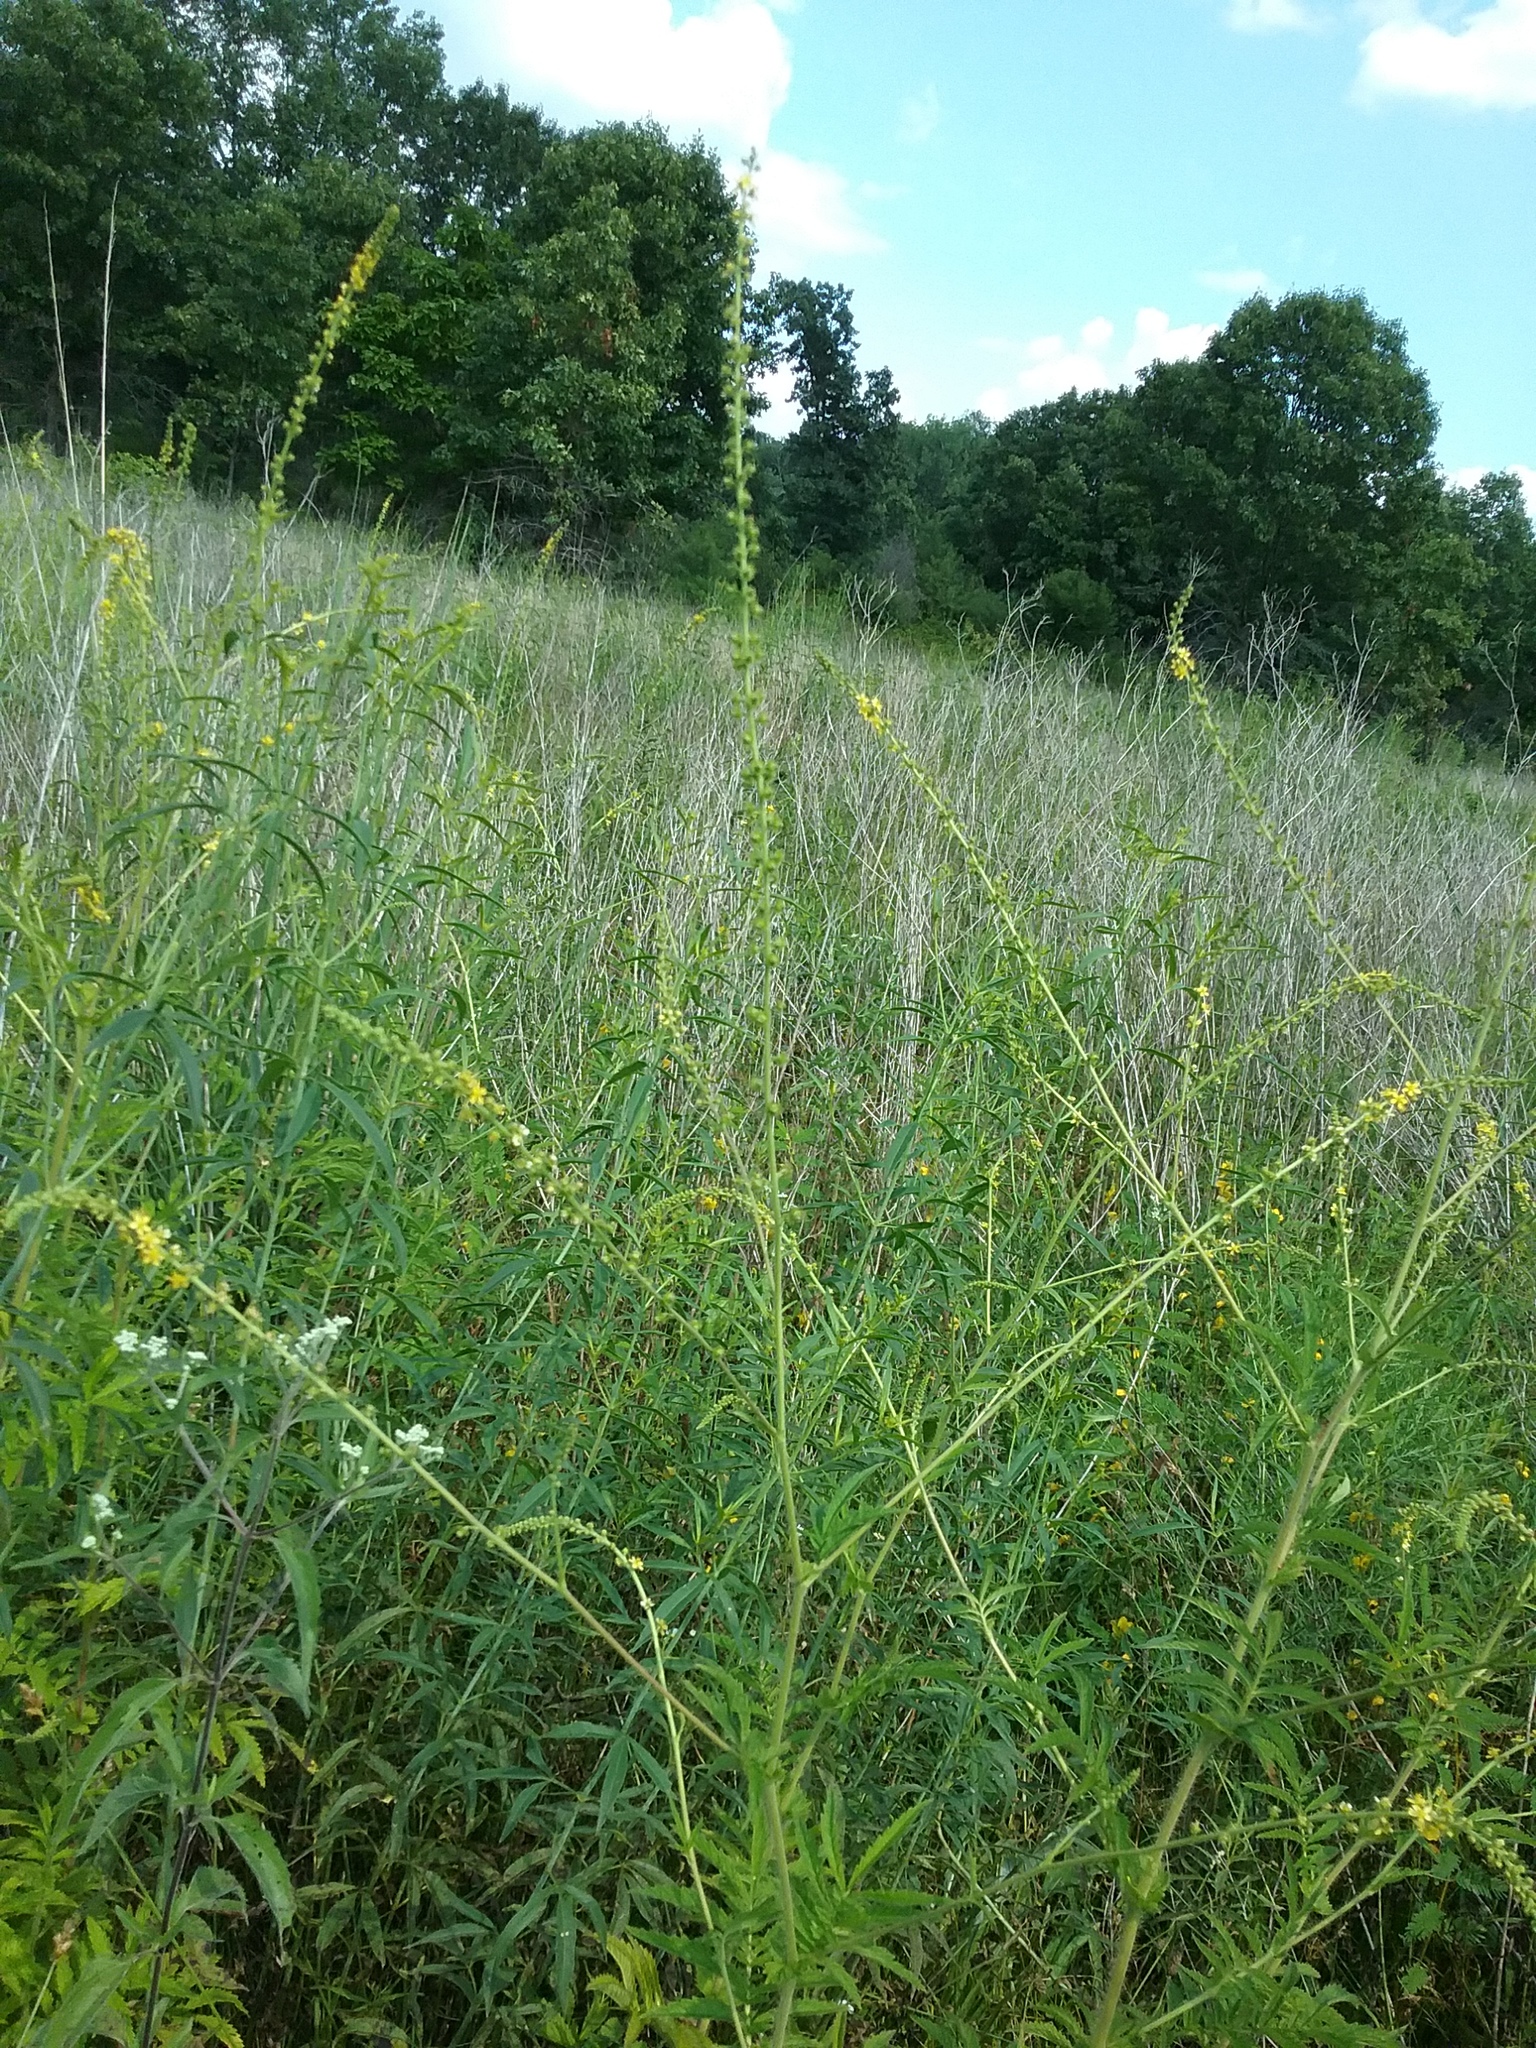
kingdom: Plantae
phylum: Tracheophyta
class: Magnoliopsida
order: Rosales
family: Rosaceae
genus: Agrimonia
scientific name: Agrimonia parviflora
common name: Harvest-lice
